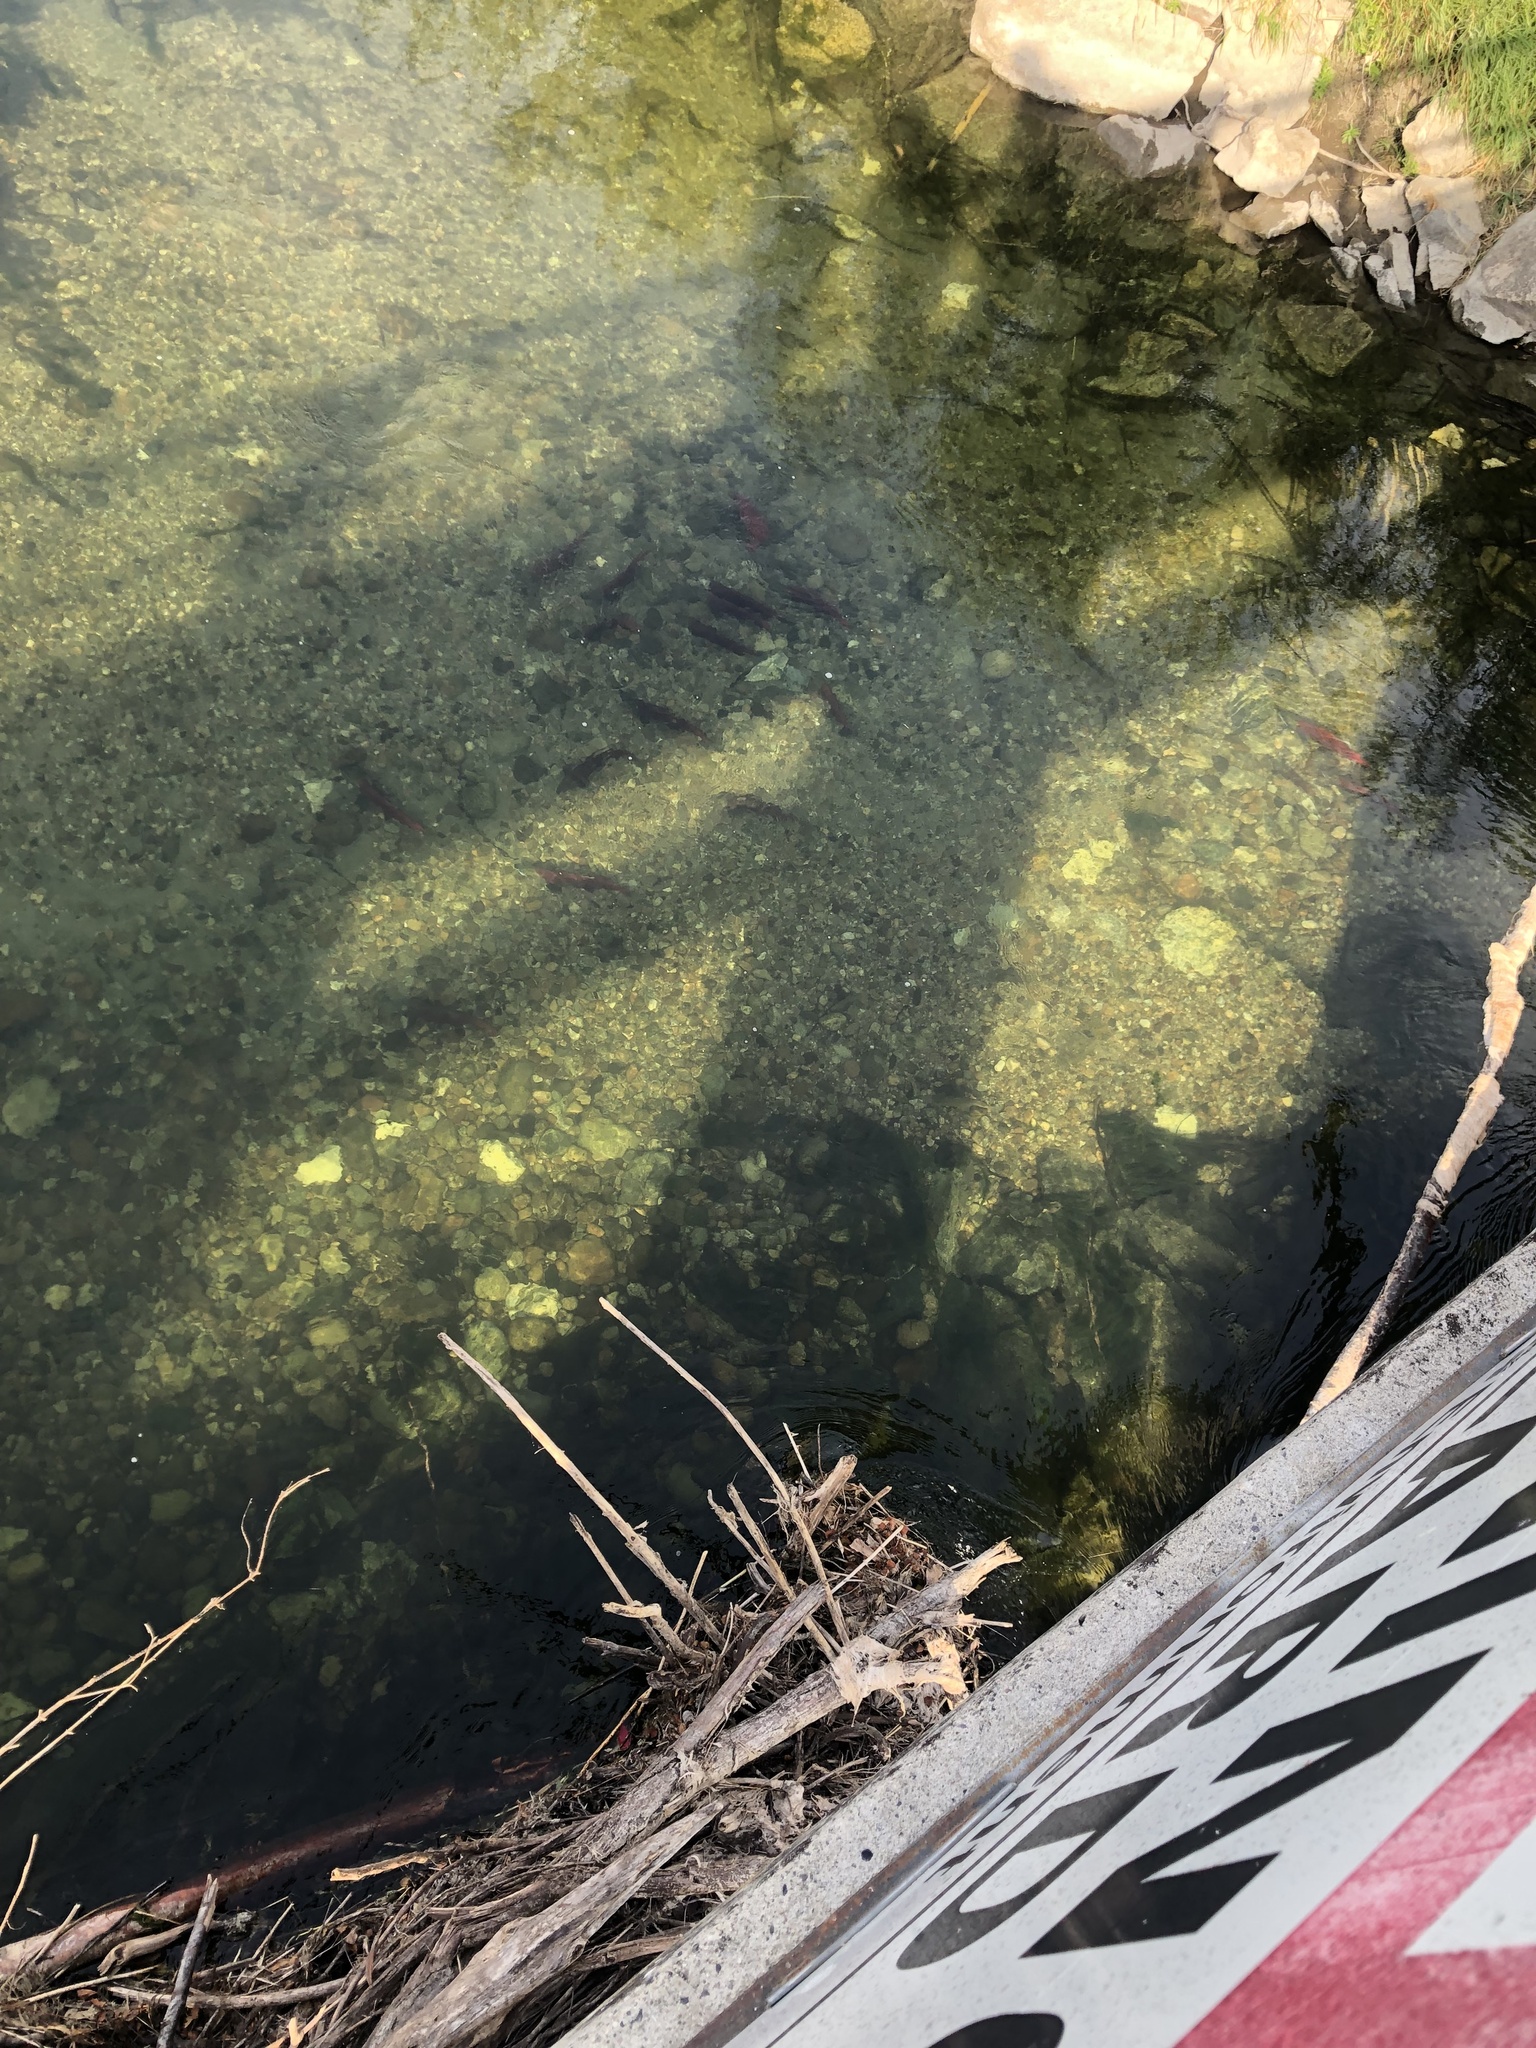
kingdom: Animalia
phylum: Chordata
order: Salmoniformes
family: Salmonidae
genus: Oncorhynchus
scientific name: Oncorhynchus nerka
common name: Sockeye salmon
